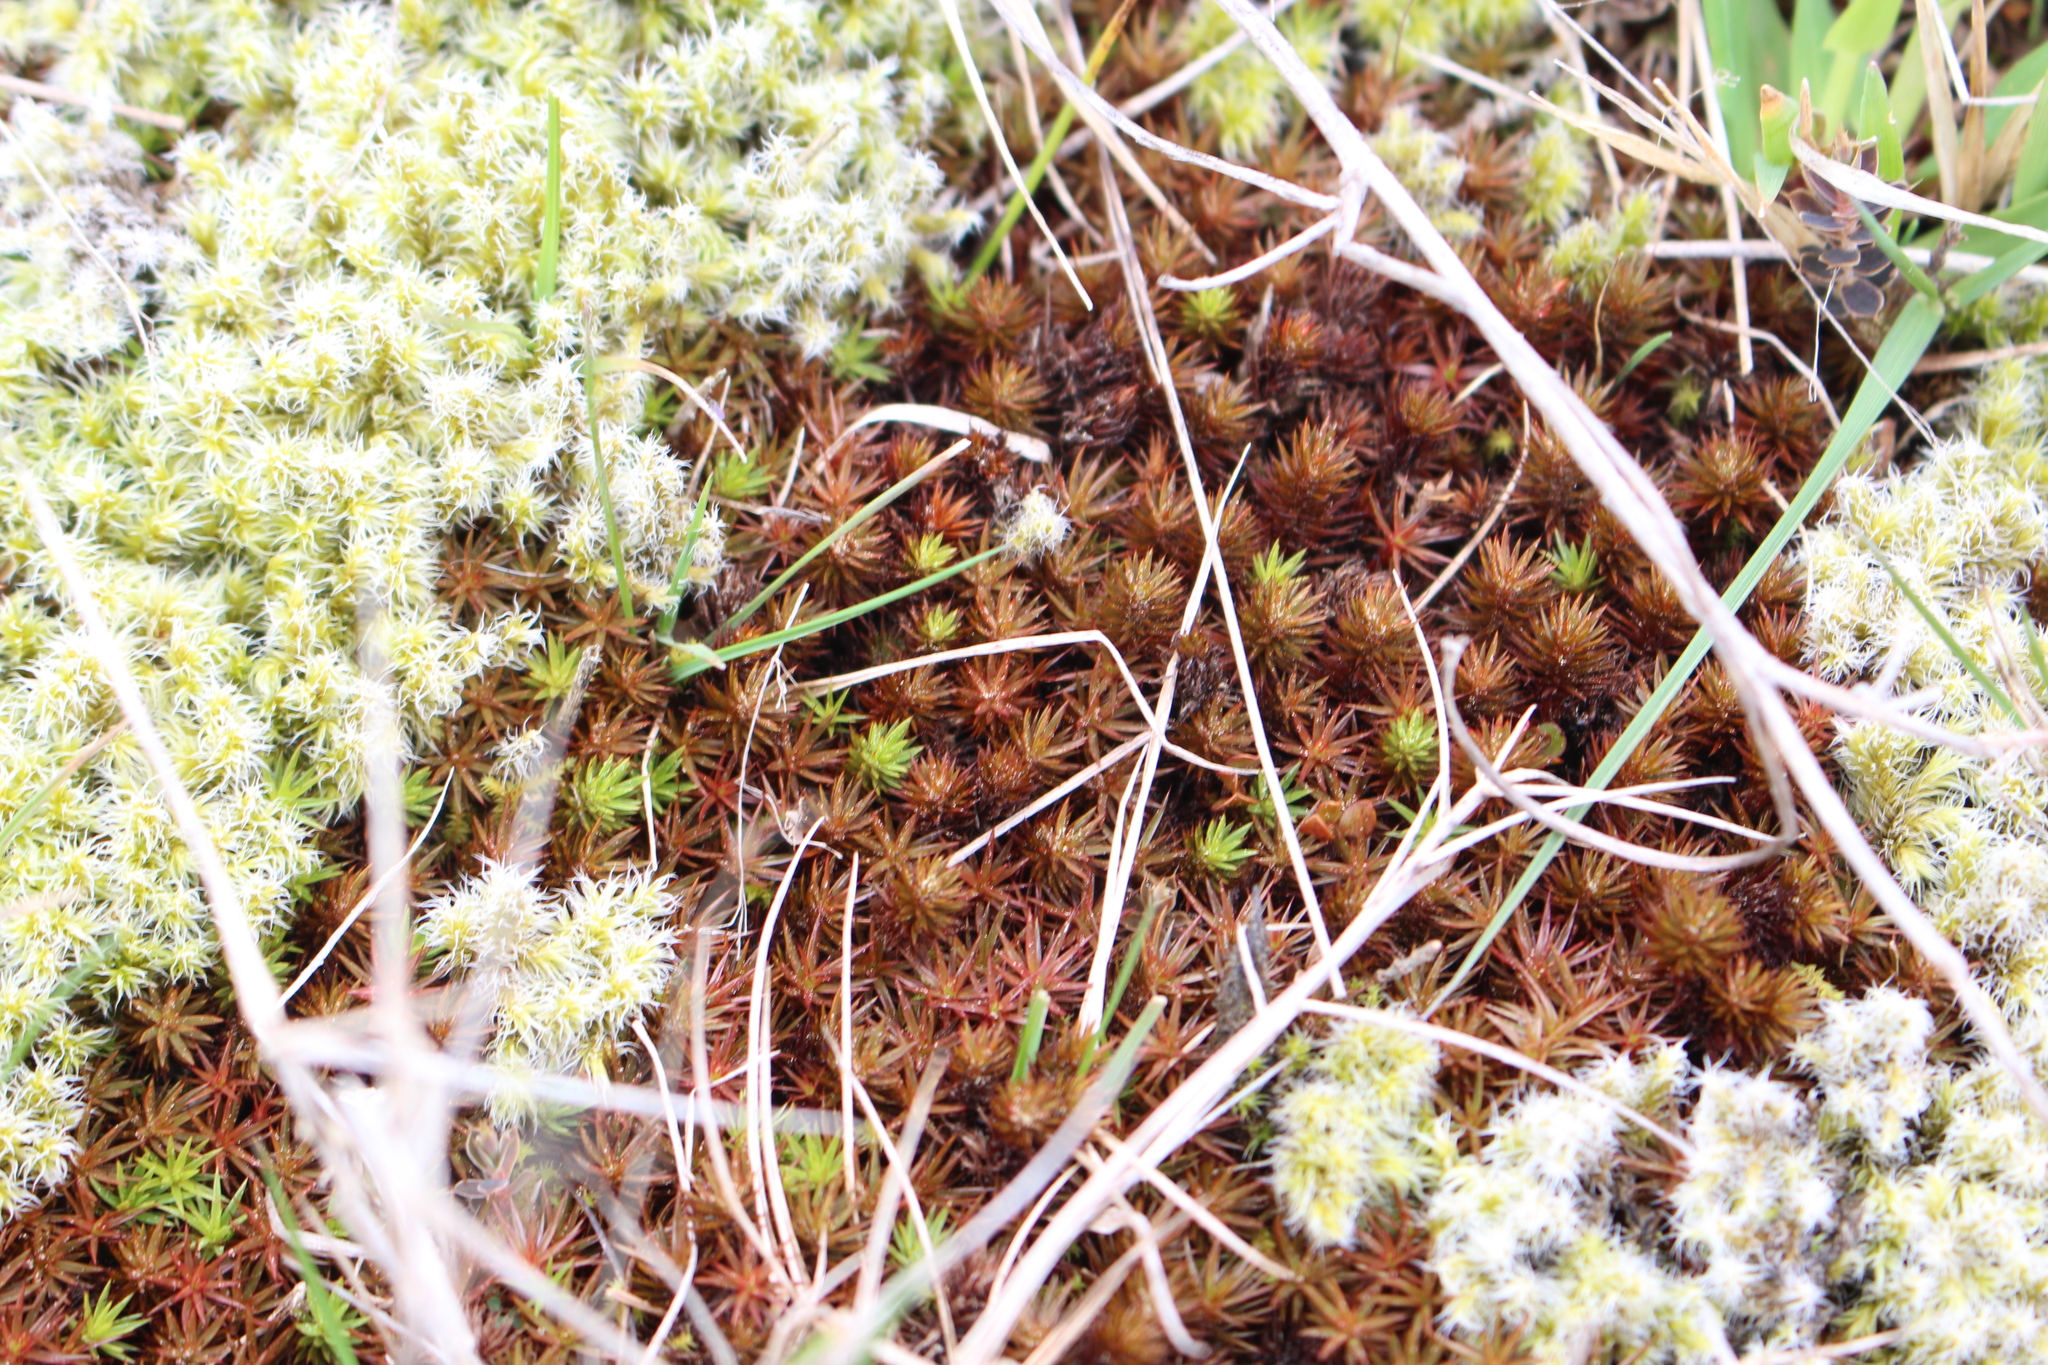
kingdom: Plantae
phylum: Bryophyta
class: Polytrichopsida
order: Polytrichales
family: Polytrichaceae
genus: Polytrichum
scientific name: Polytrichum juniperinum
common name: Juniper haircap moss
